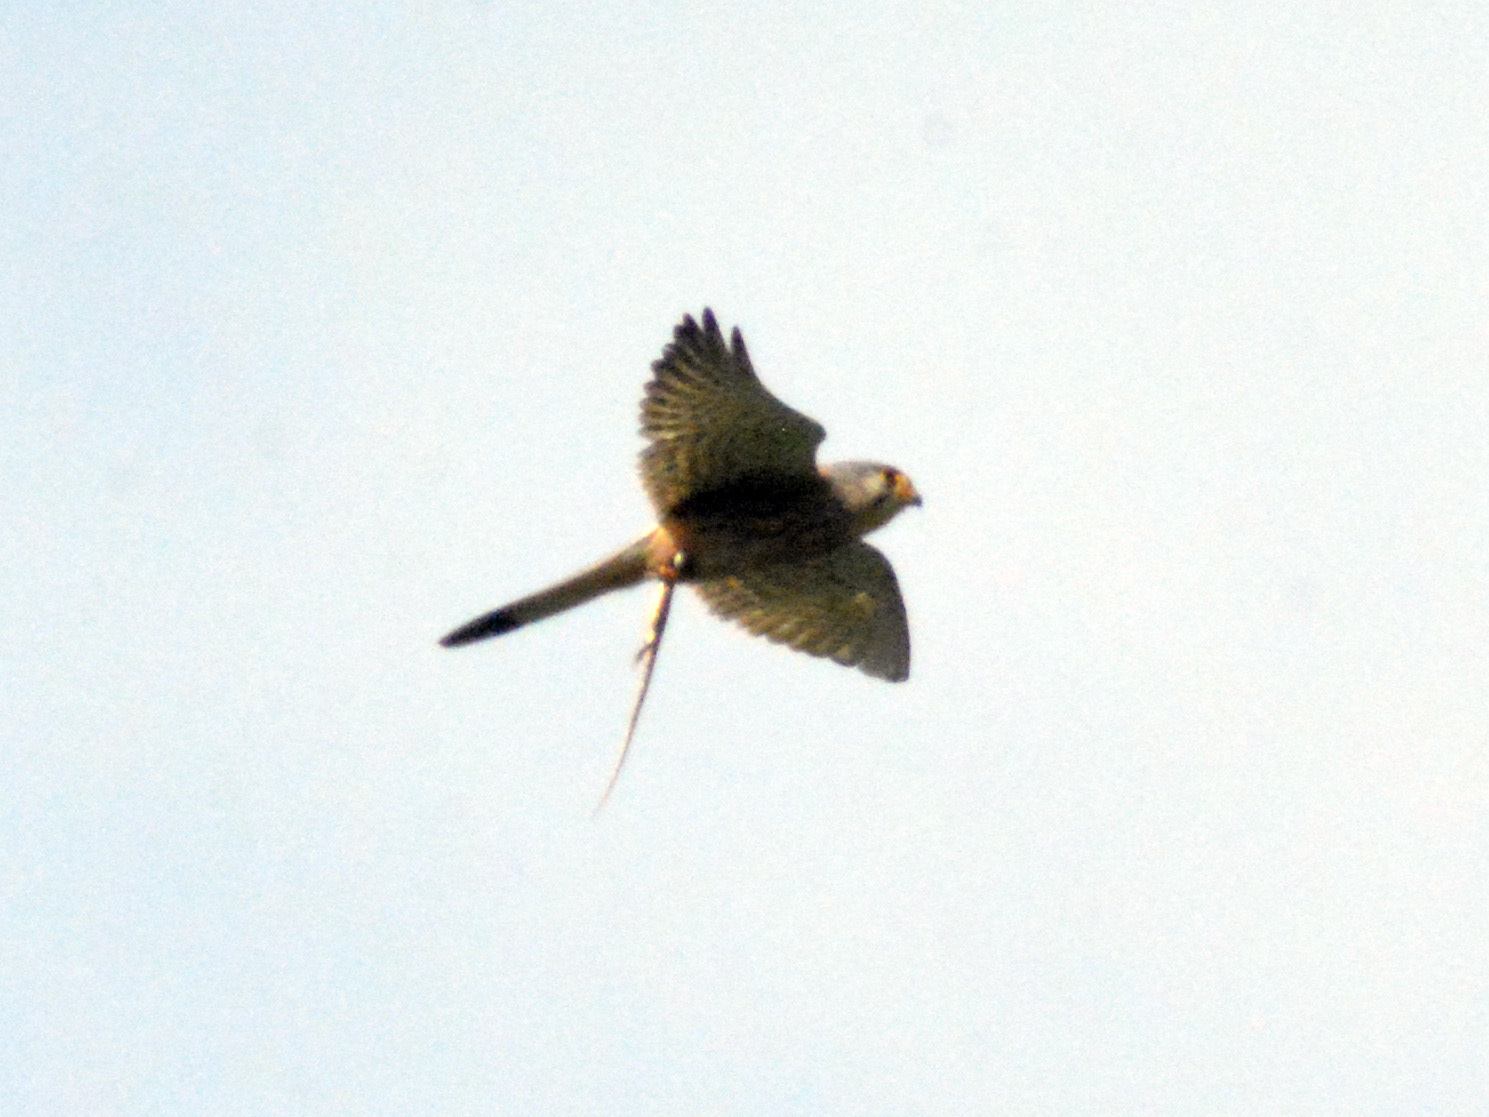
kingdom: Animalia
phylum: Chordata
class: Aves
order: Falconiformes
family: Falconidae
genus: Falco
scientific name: Falco tinnunculus
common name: Common kestrel
